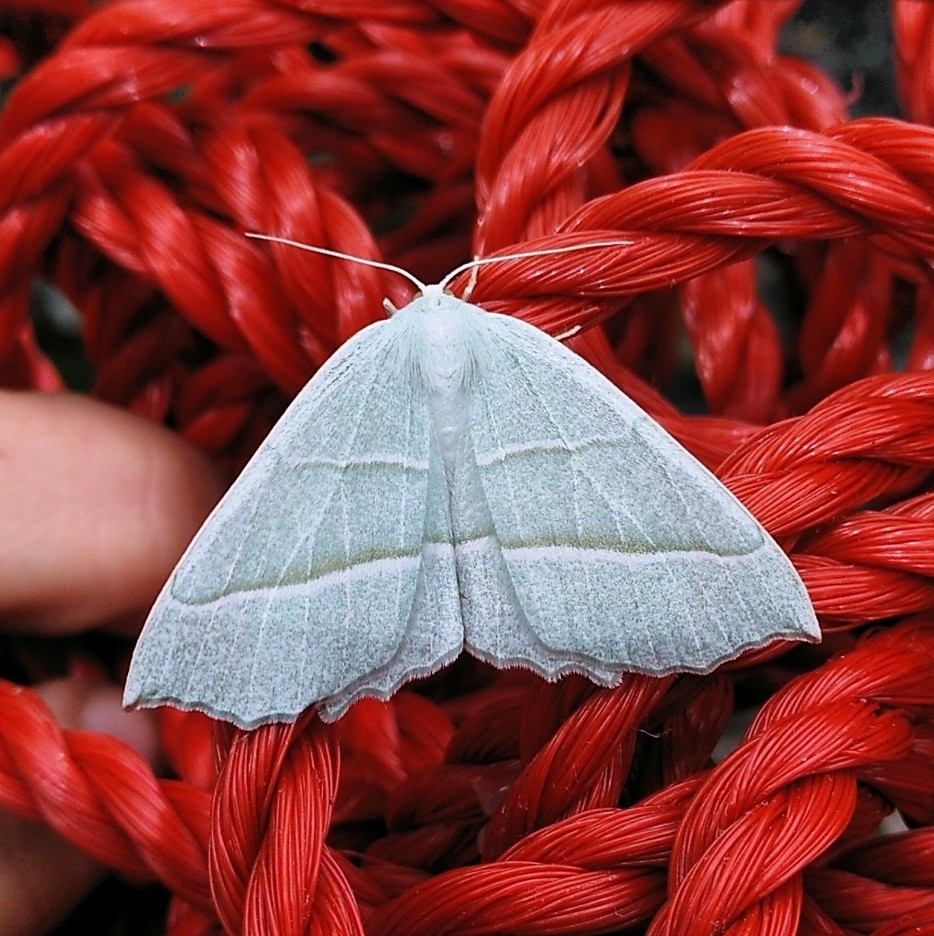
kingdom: Animalia
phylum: Arthropoda
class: Insecta
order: Lepidoptera
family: Geometridae
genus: Campaea
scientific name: Campaea margaritaria
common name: Light emerald
